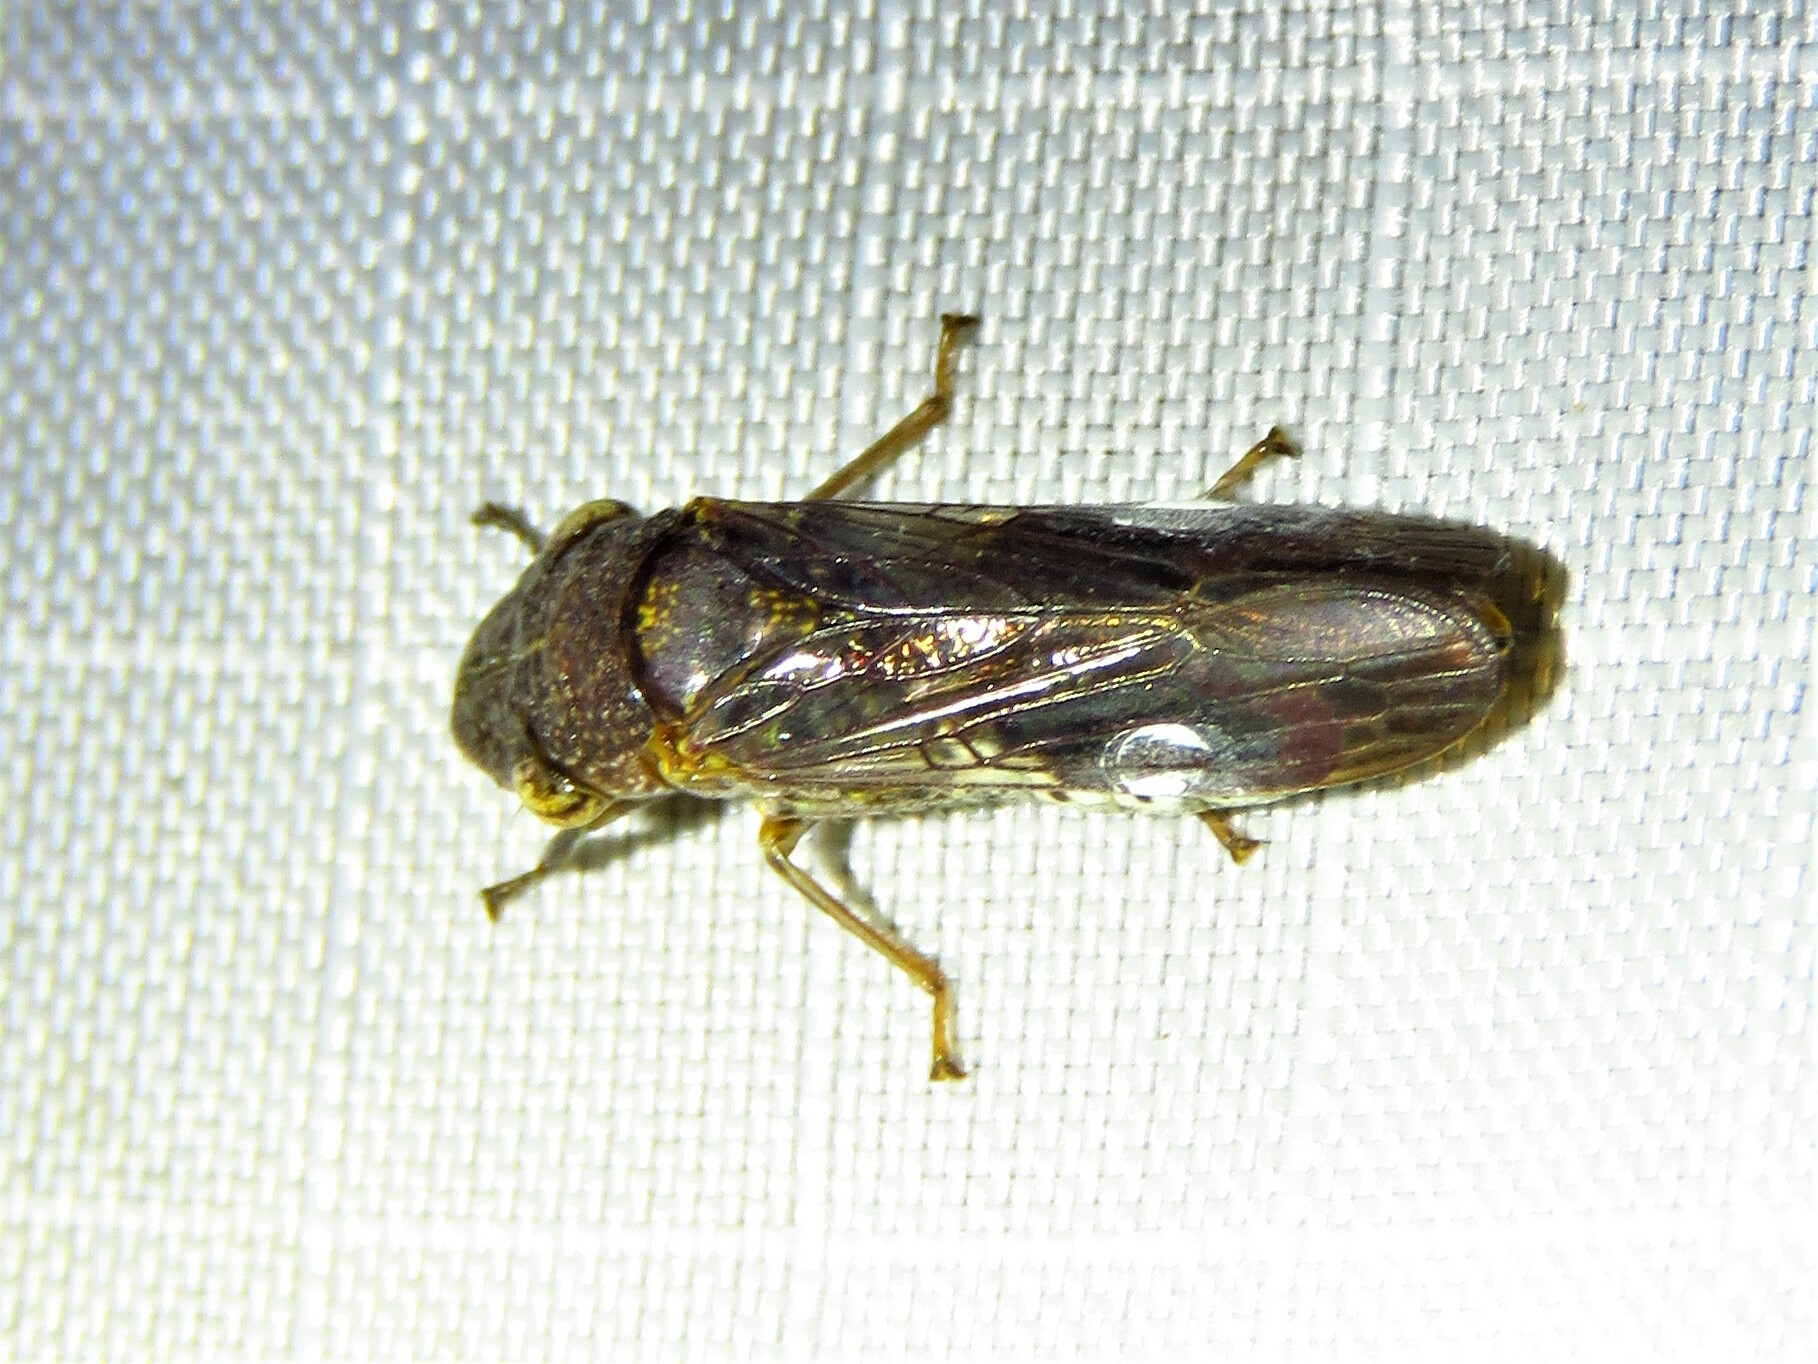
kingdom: Animalia
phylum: Arthropoda
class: Insecta
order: Hemiptera
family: Cicadellidae
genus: Homalodisca
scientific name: Homalodisca vitripennis
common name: Glassy-winged sharpshooter
